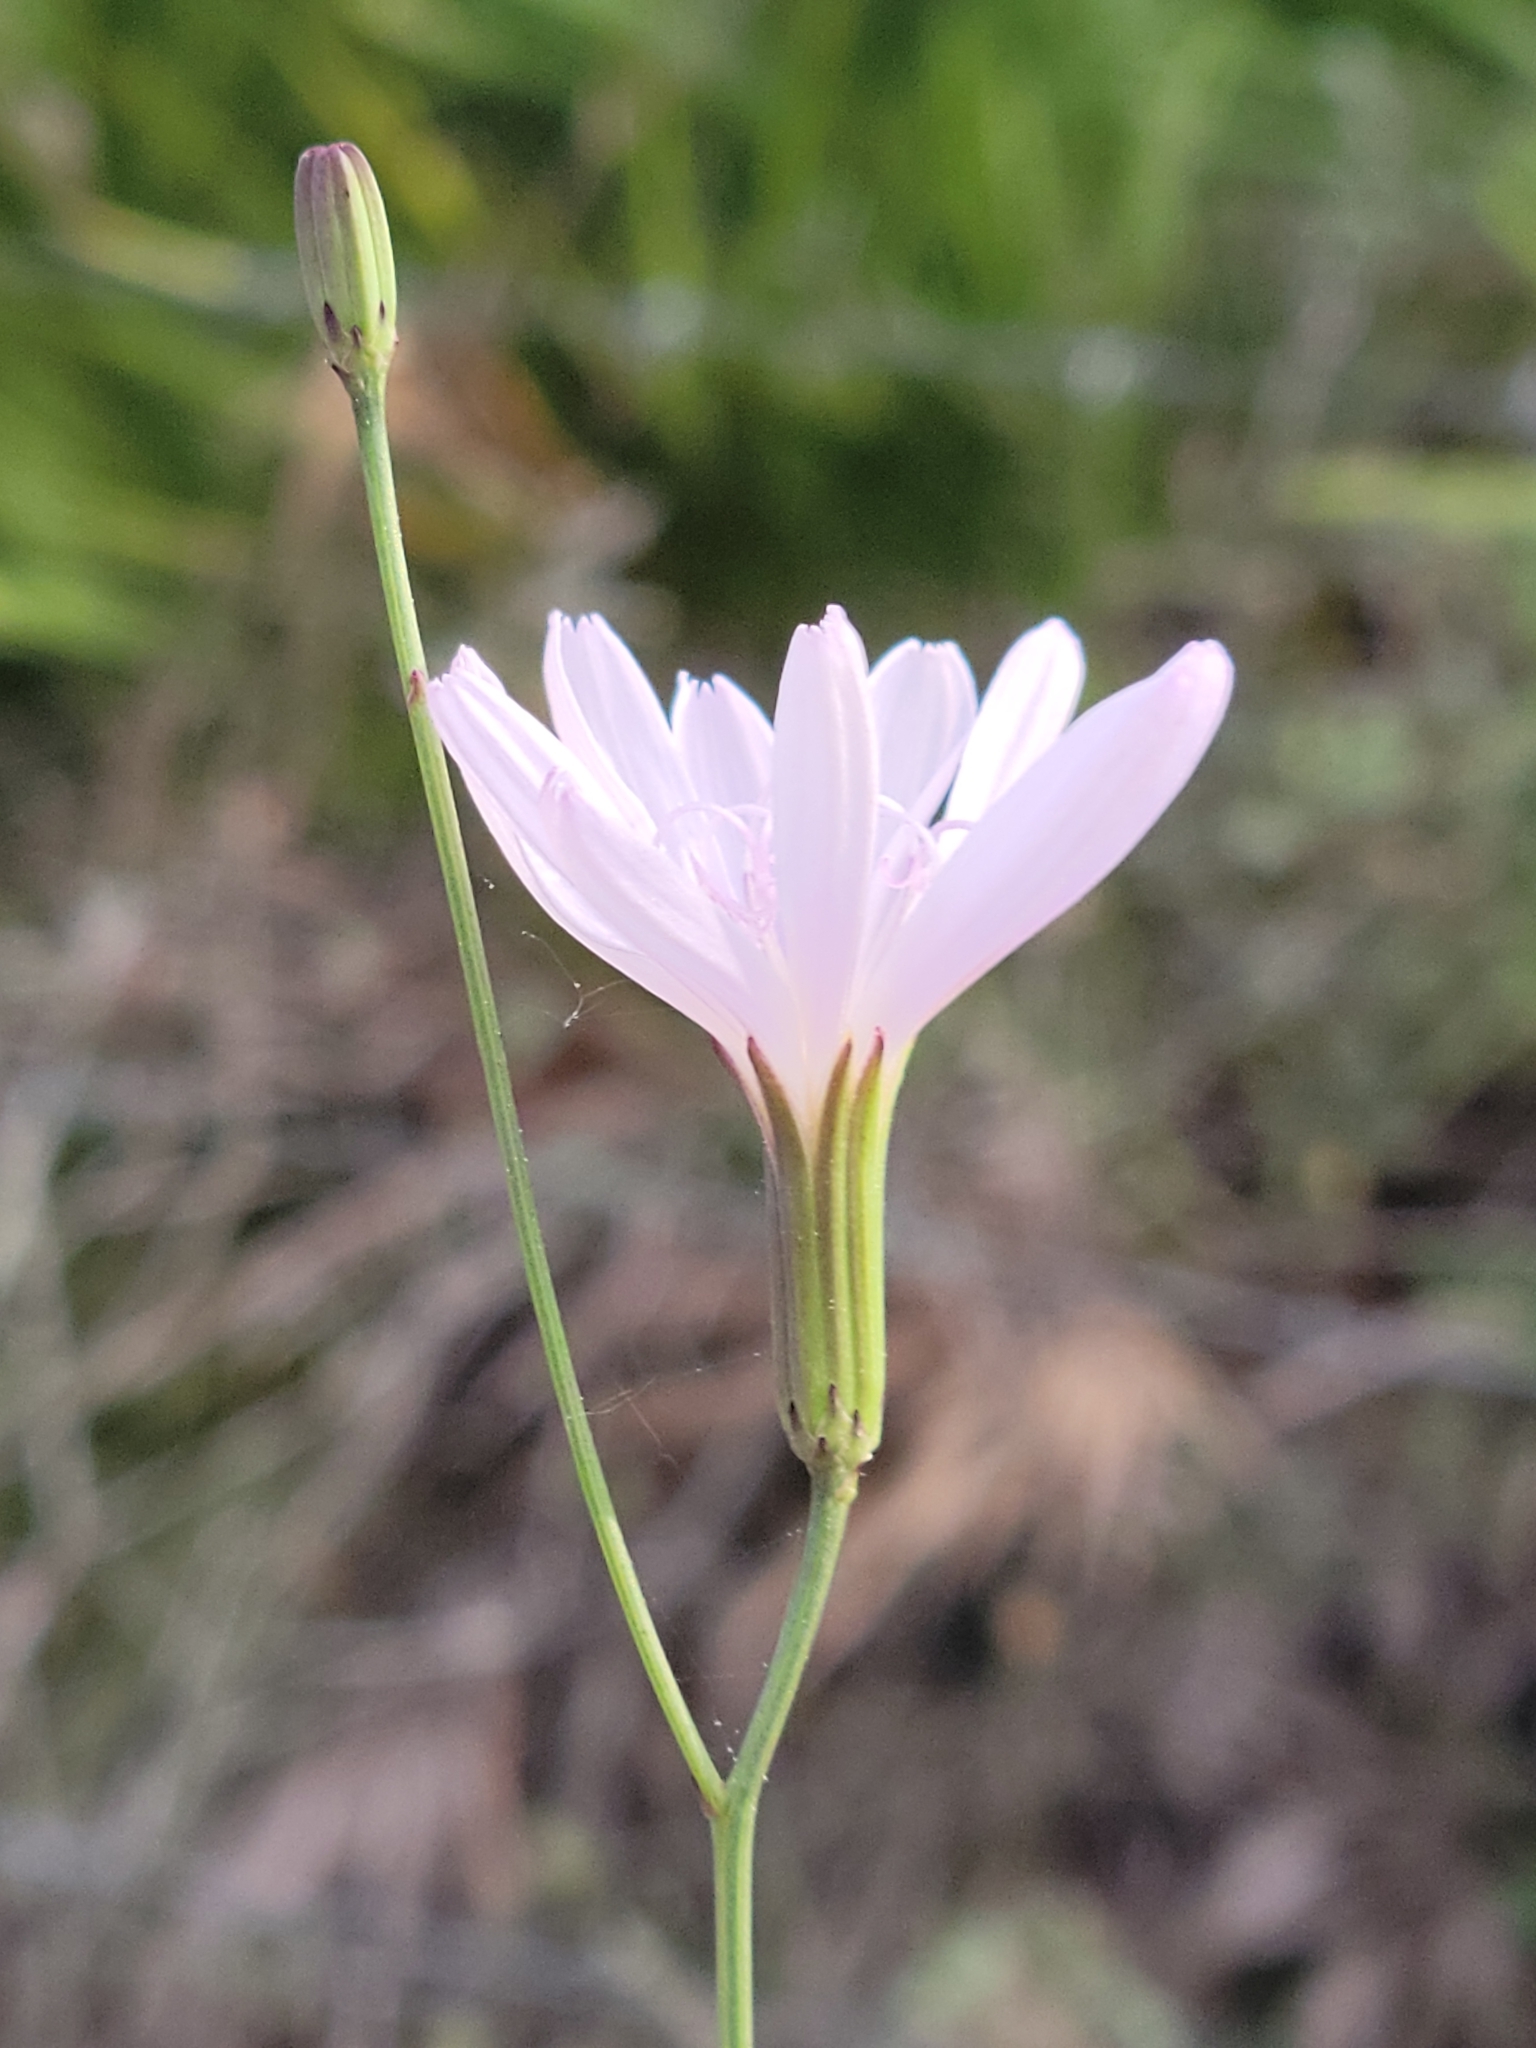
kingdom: Plantae
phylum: Tracheophyta
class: Magnoliopsida
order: Asterales
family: Asteraceae
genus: Lygodesmia
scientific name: Lygodesmia aphylla
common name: Rose-rush
